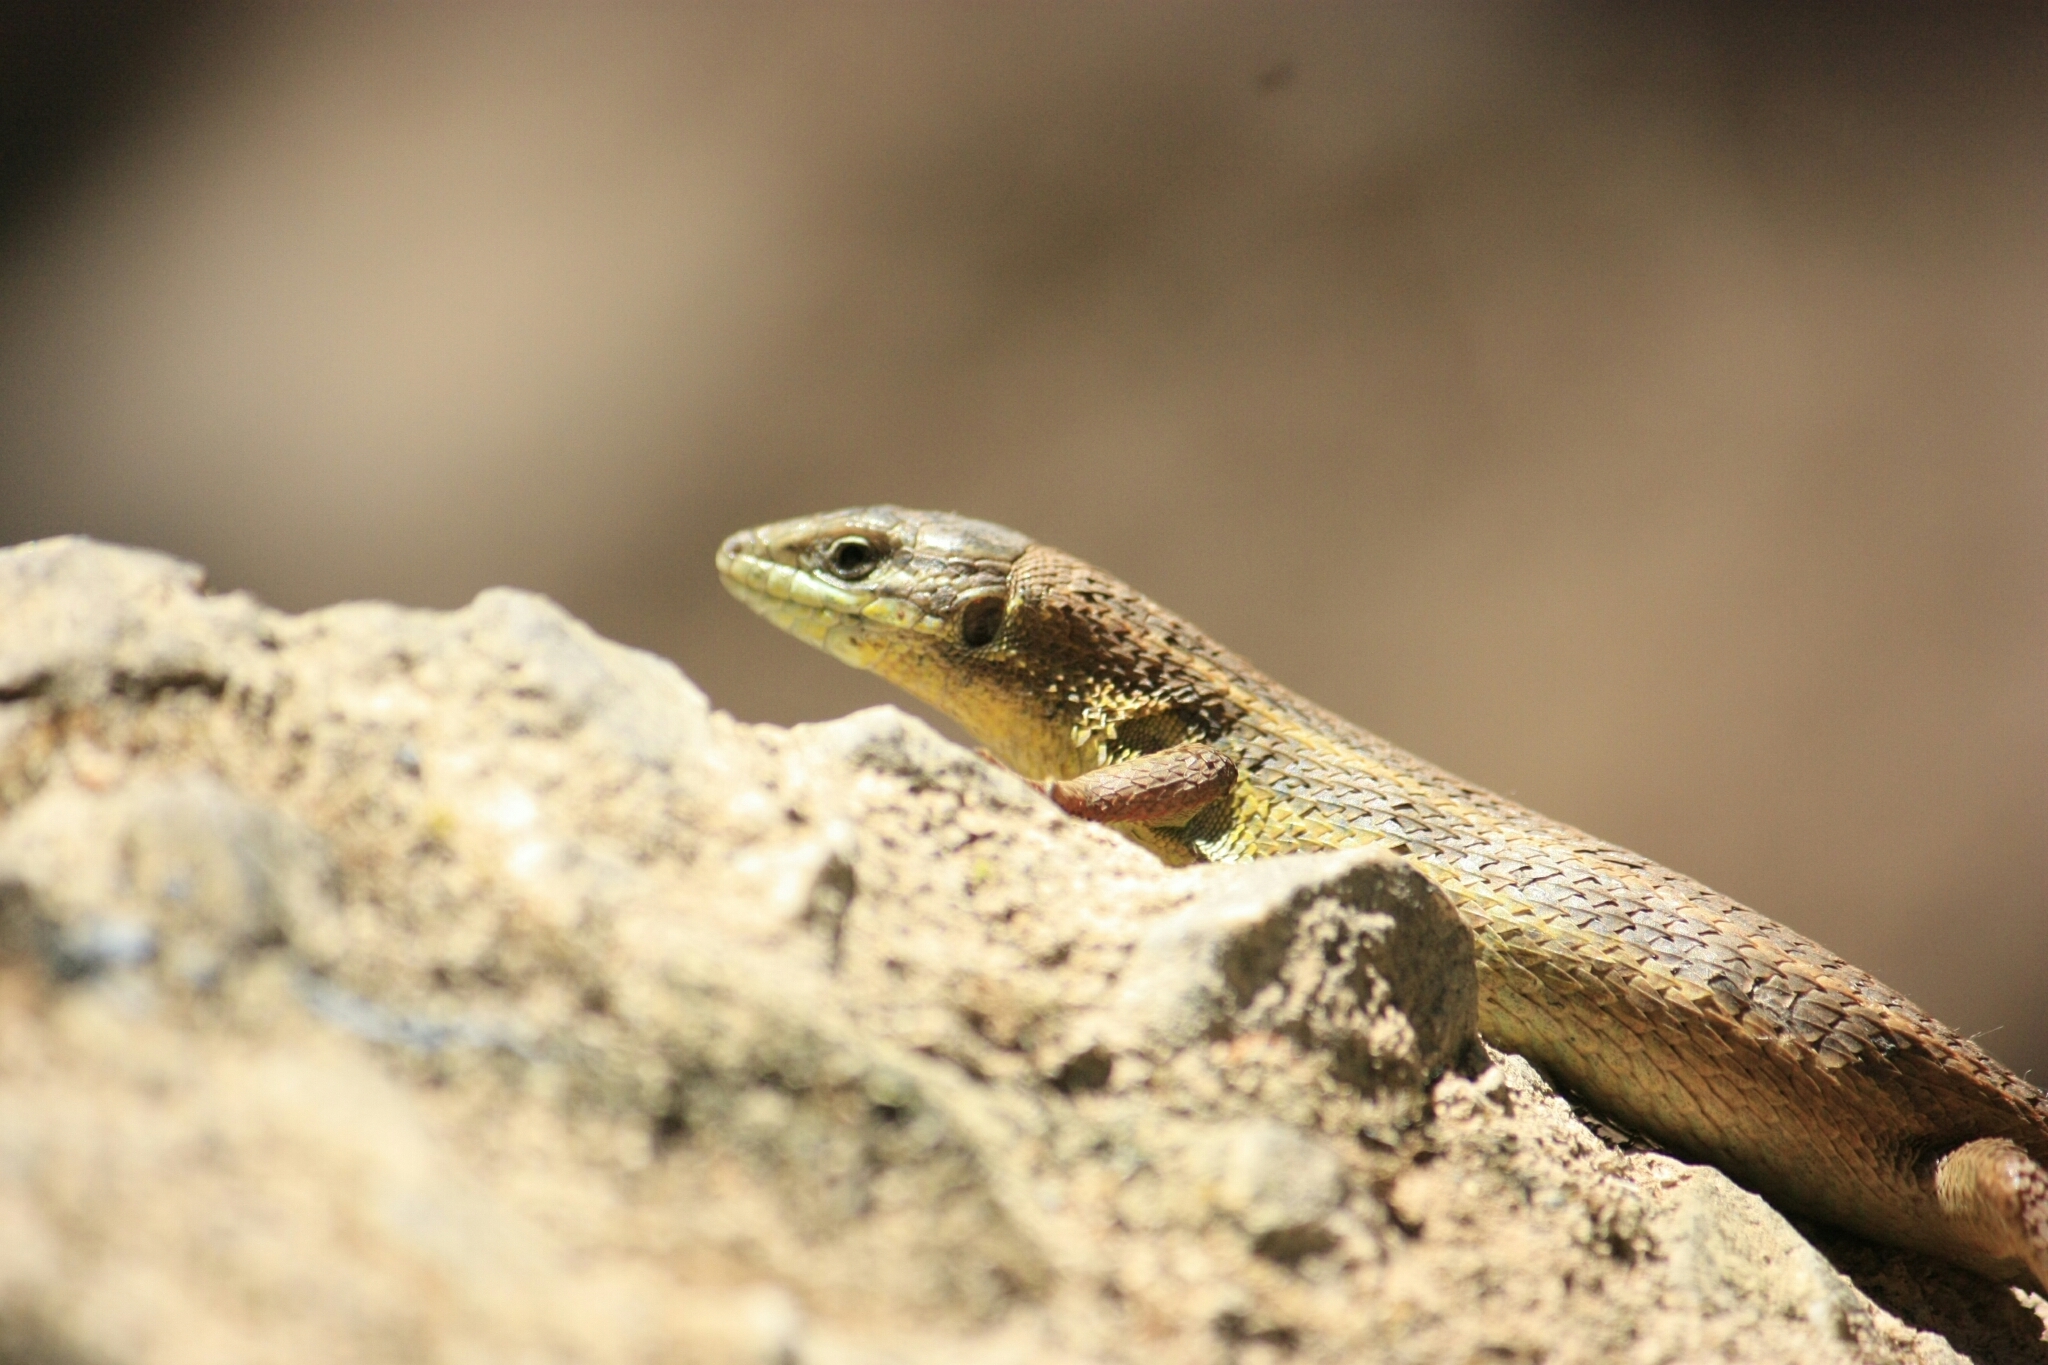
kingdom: Animalia
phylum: Chordata
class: Squamata
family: Lacertidae
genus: Psammodromus
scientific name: Psammodromus algirus
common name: Algerian psammodromus
